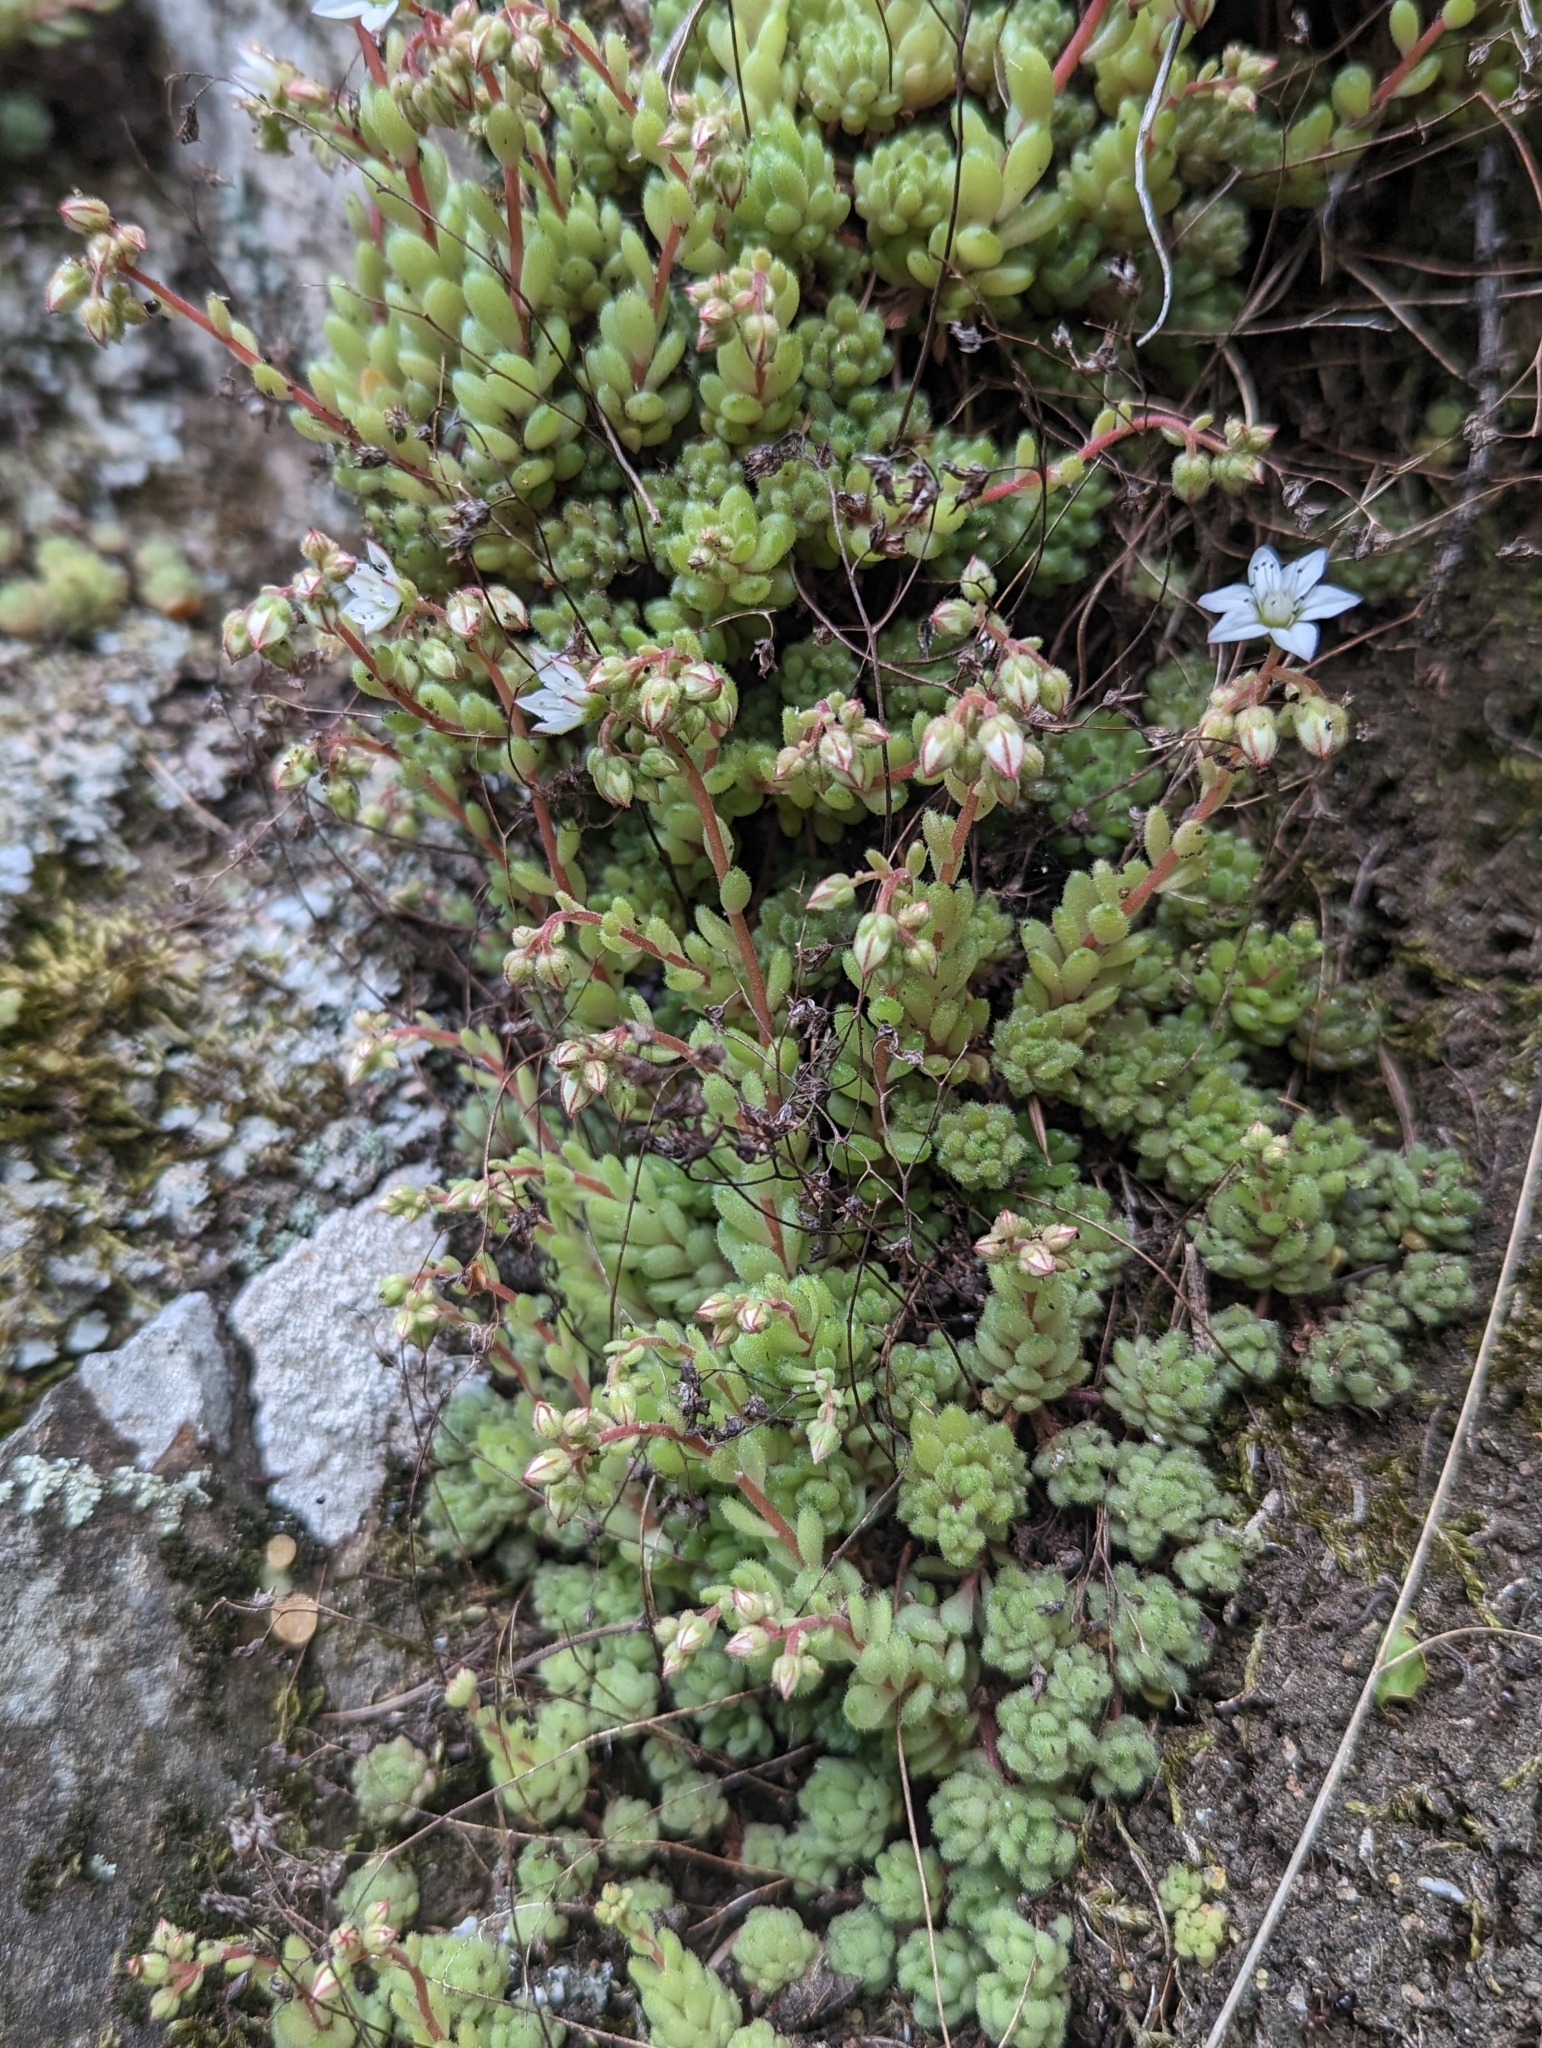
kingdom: Plantae
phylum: Tracheophyta
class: Magnoliopsida
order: Saxifragales
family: Crassulaceae
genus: Sedum
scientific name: Sedum hirsutum
